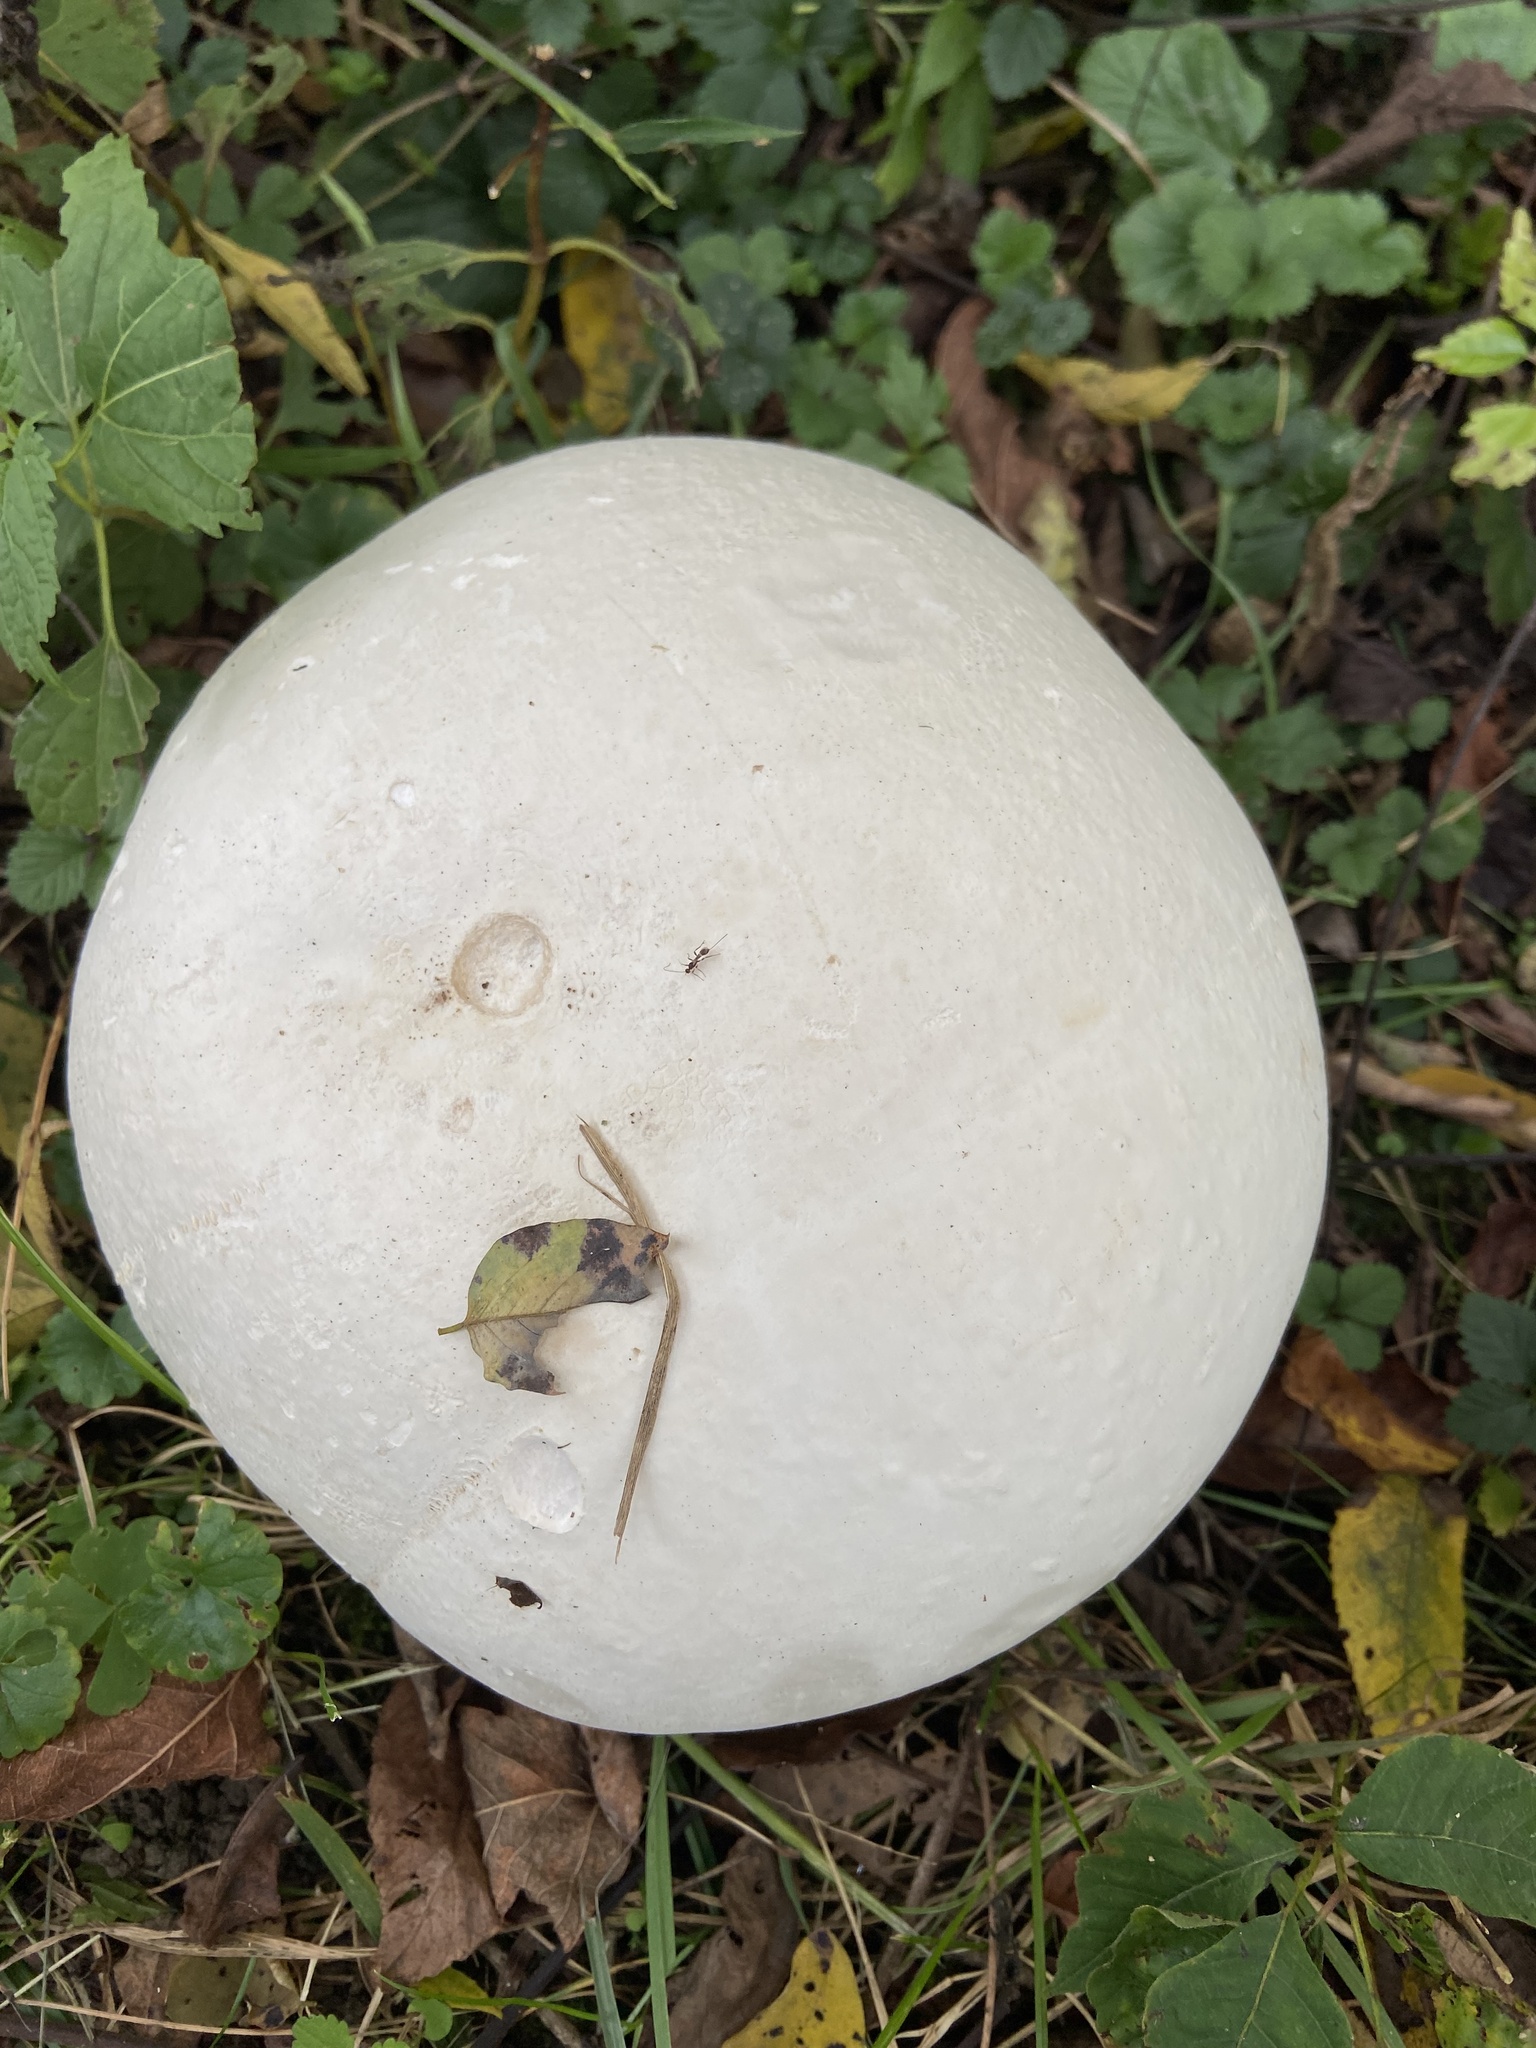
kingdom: Fungi
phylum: Basidiomycota
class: Agaricomycetes
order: Agaricales
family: Lycoperdaceae
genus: Calvatia
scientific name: Calvatia gigantea
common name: Giant puffball
